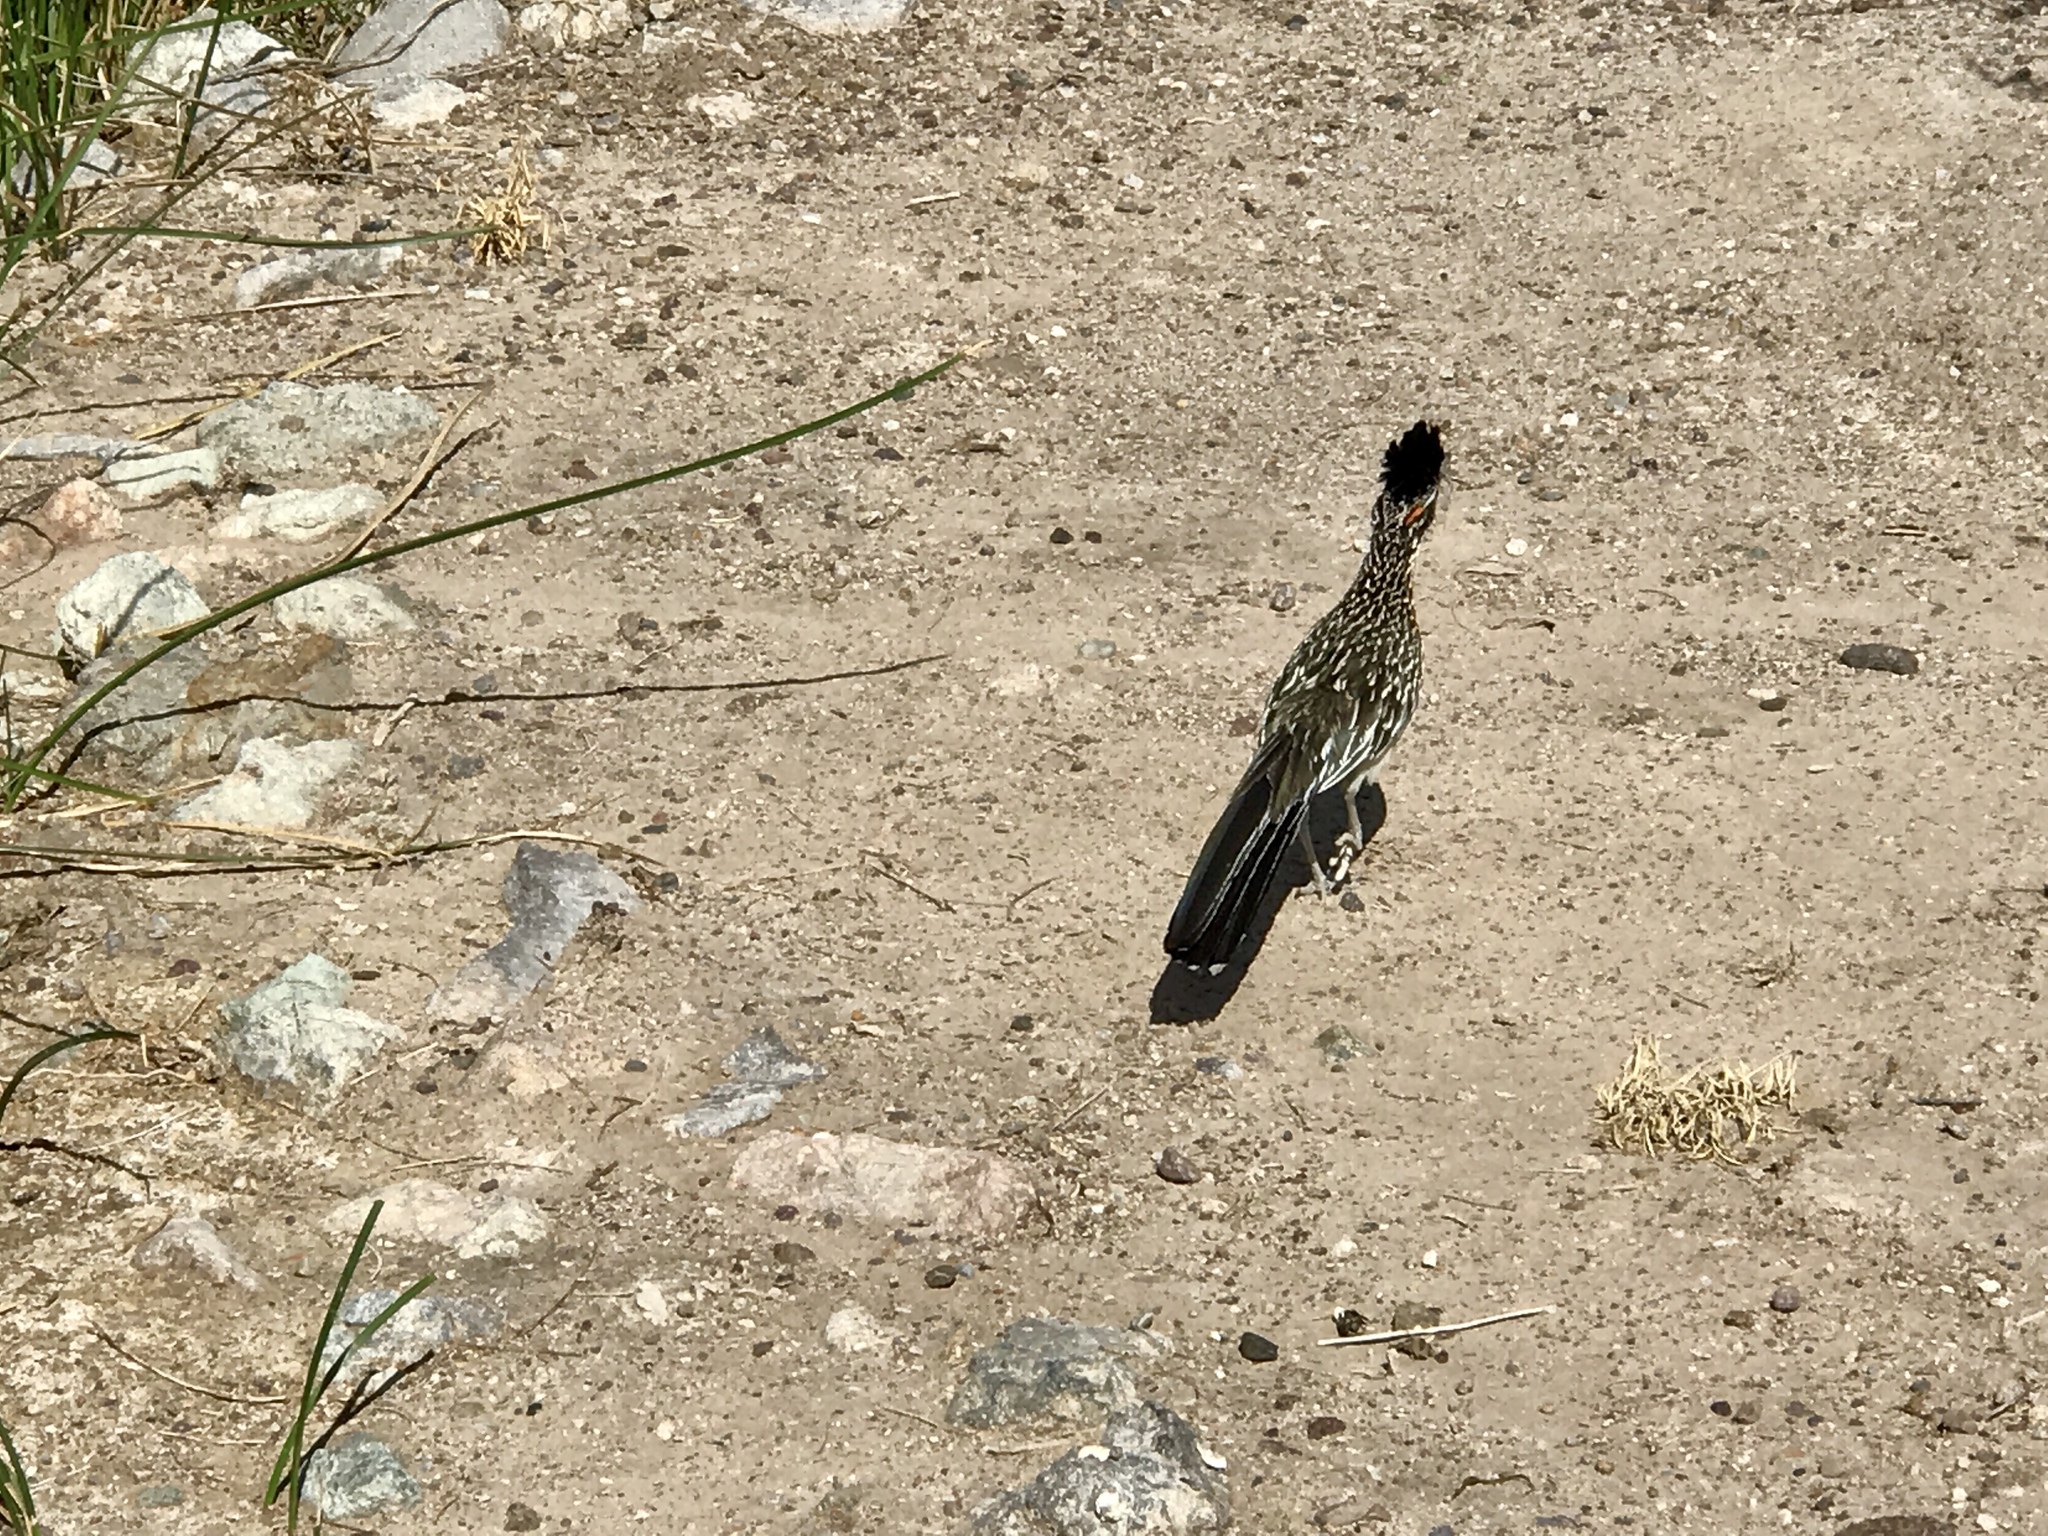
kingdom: Animalia
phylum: Chordata
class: Aves
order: Cuculiformes
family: Cuculidae
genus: Geococcyx
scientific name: Geococcyx californianus
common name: Greater roadrunner
